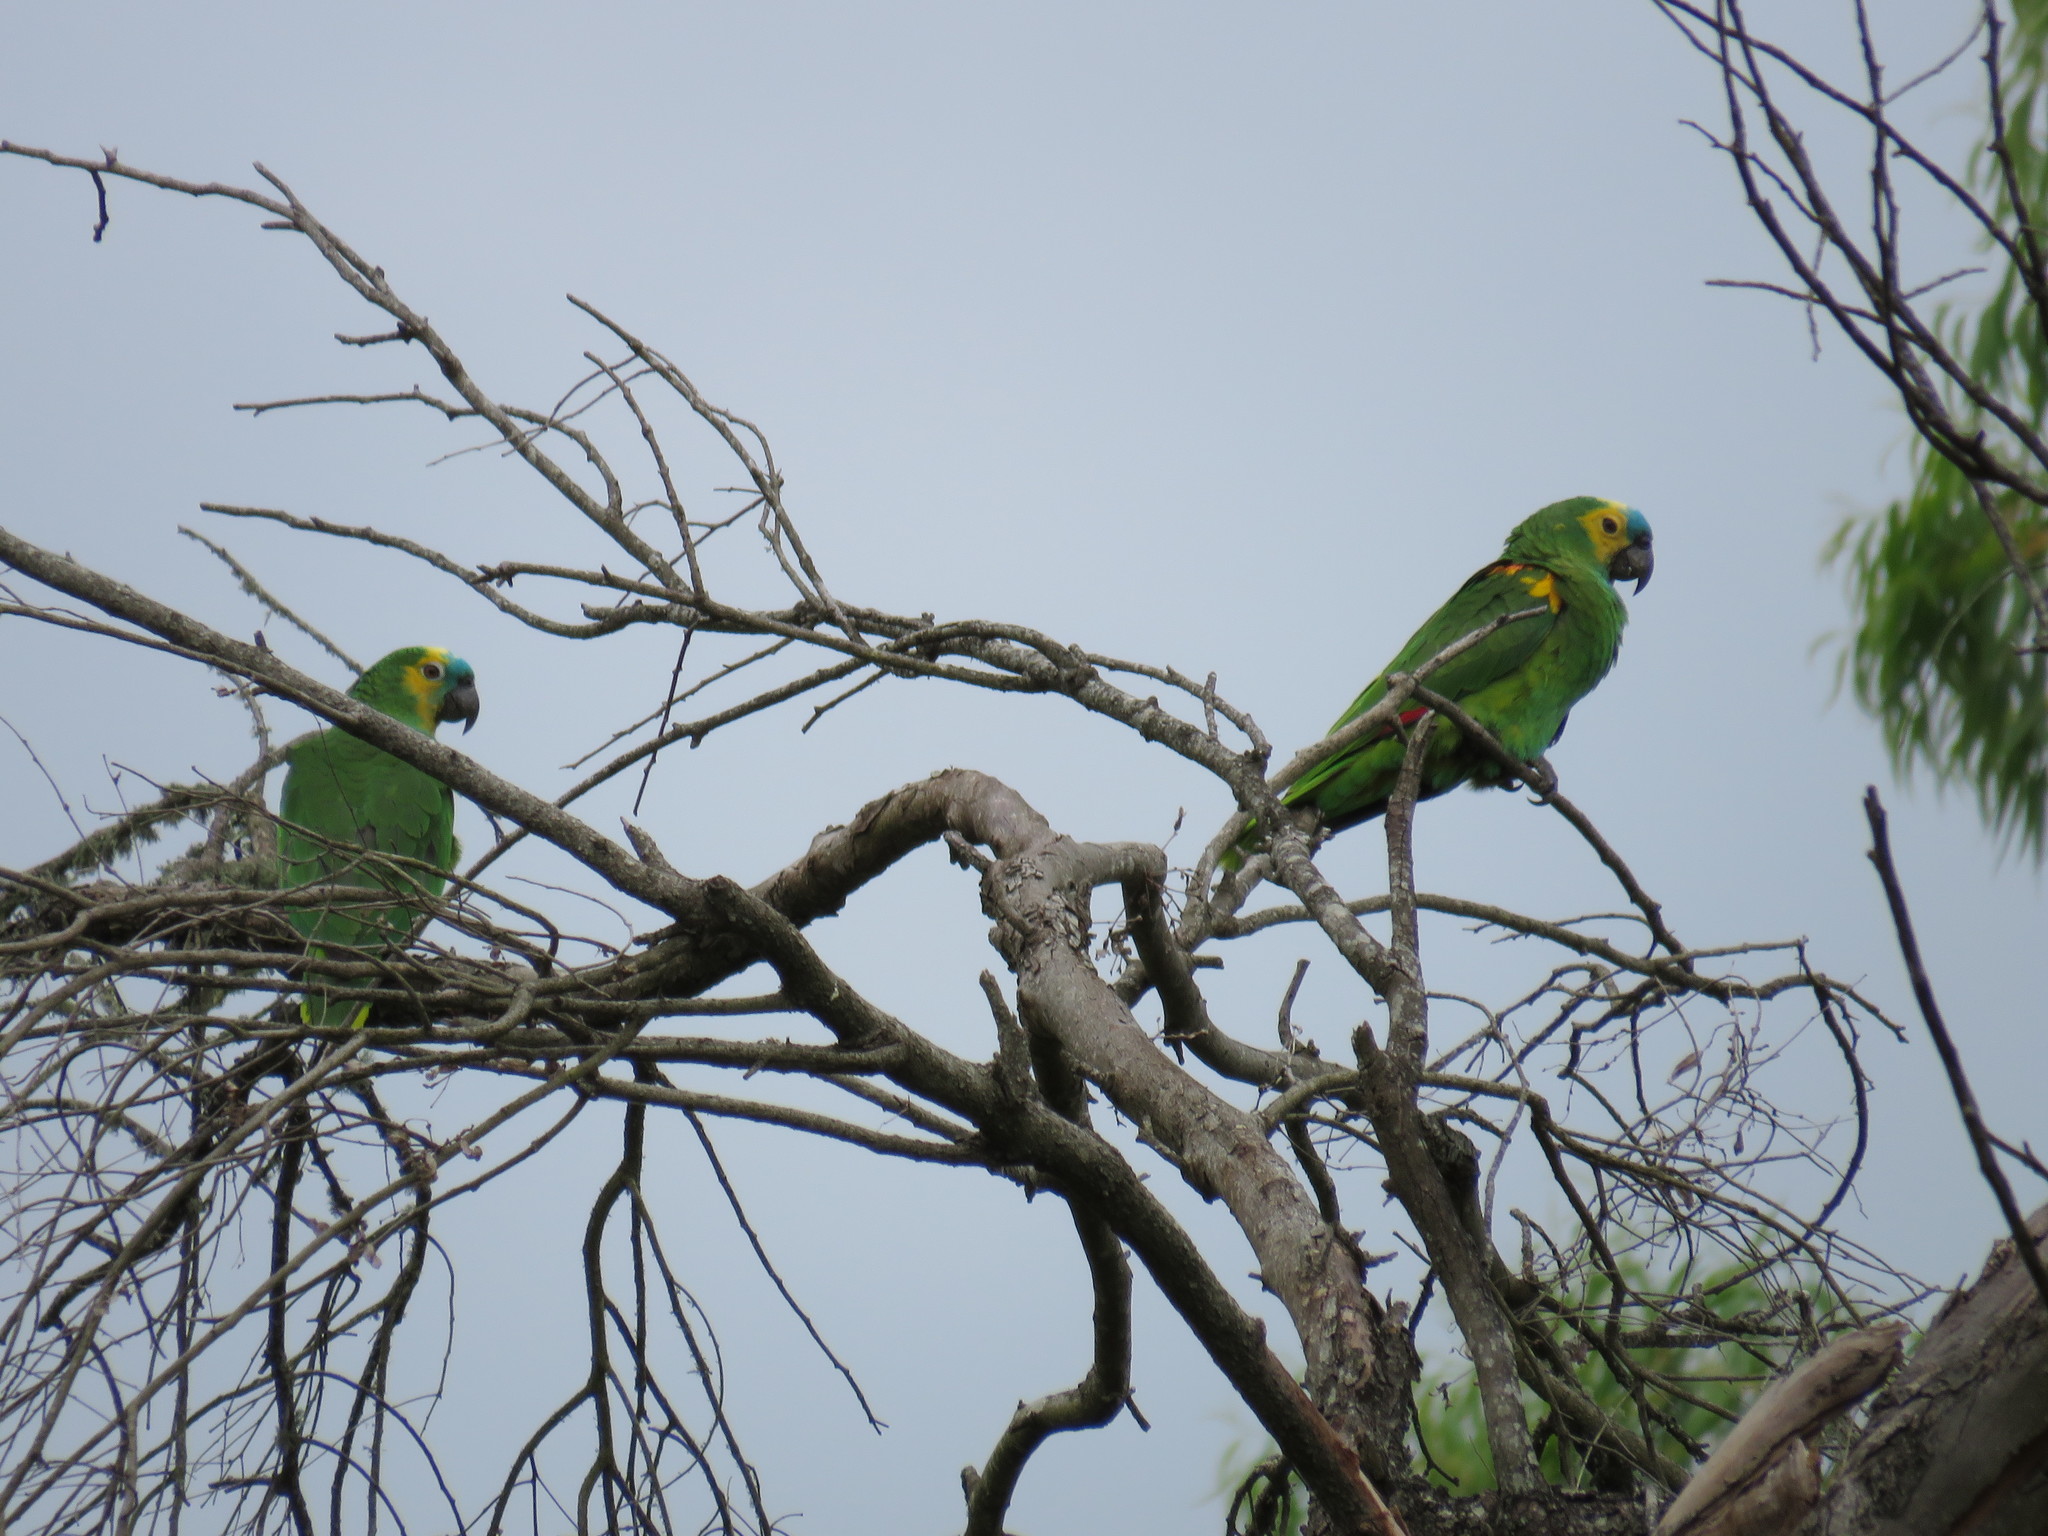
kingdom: Animalia
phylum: Chordata
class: Aves
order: Psittaciformes
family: Psittacidae
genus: Amazona
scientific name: Amazona aestiva
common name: Turquoise-fronted amazon
